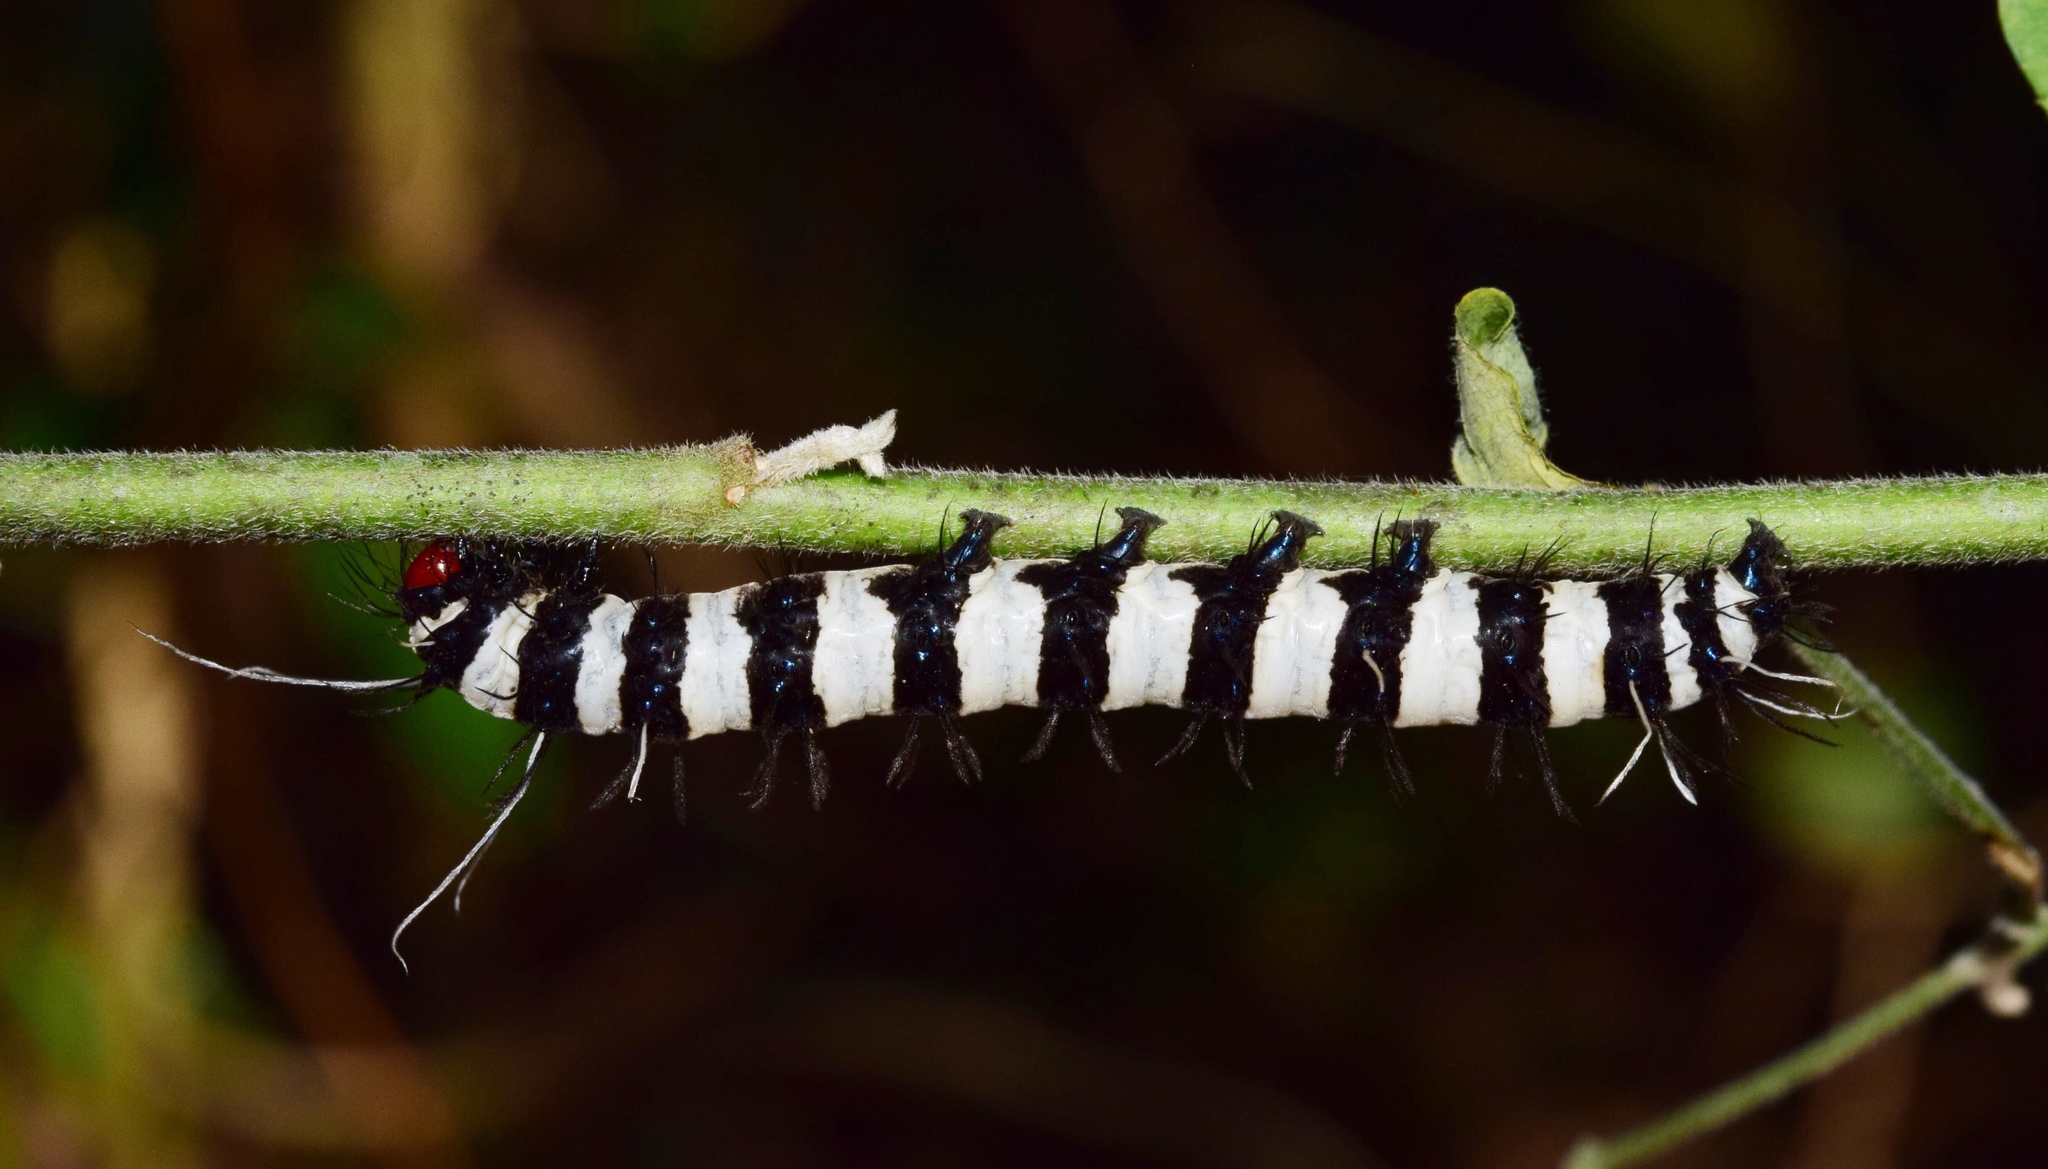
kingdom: Animalia
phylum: Arthropoda
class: Insecta
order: Lepidoptera
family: Erebidae
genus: Amphicallia
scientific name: Amphicallia bellatrix
